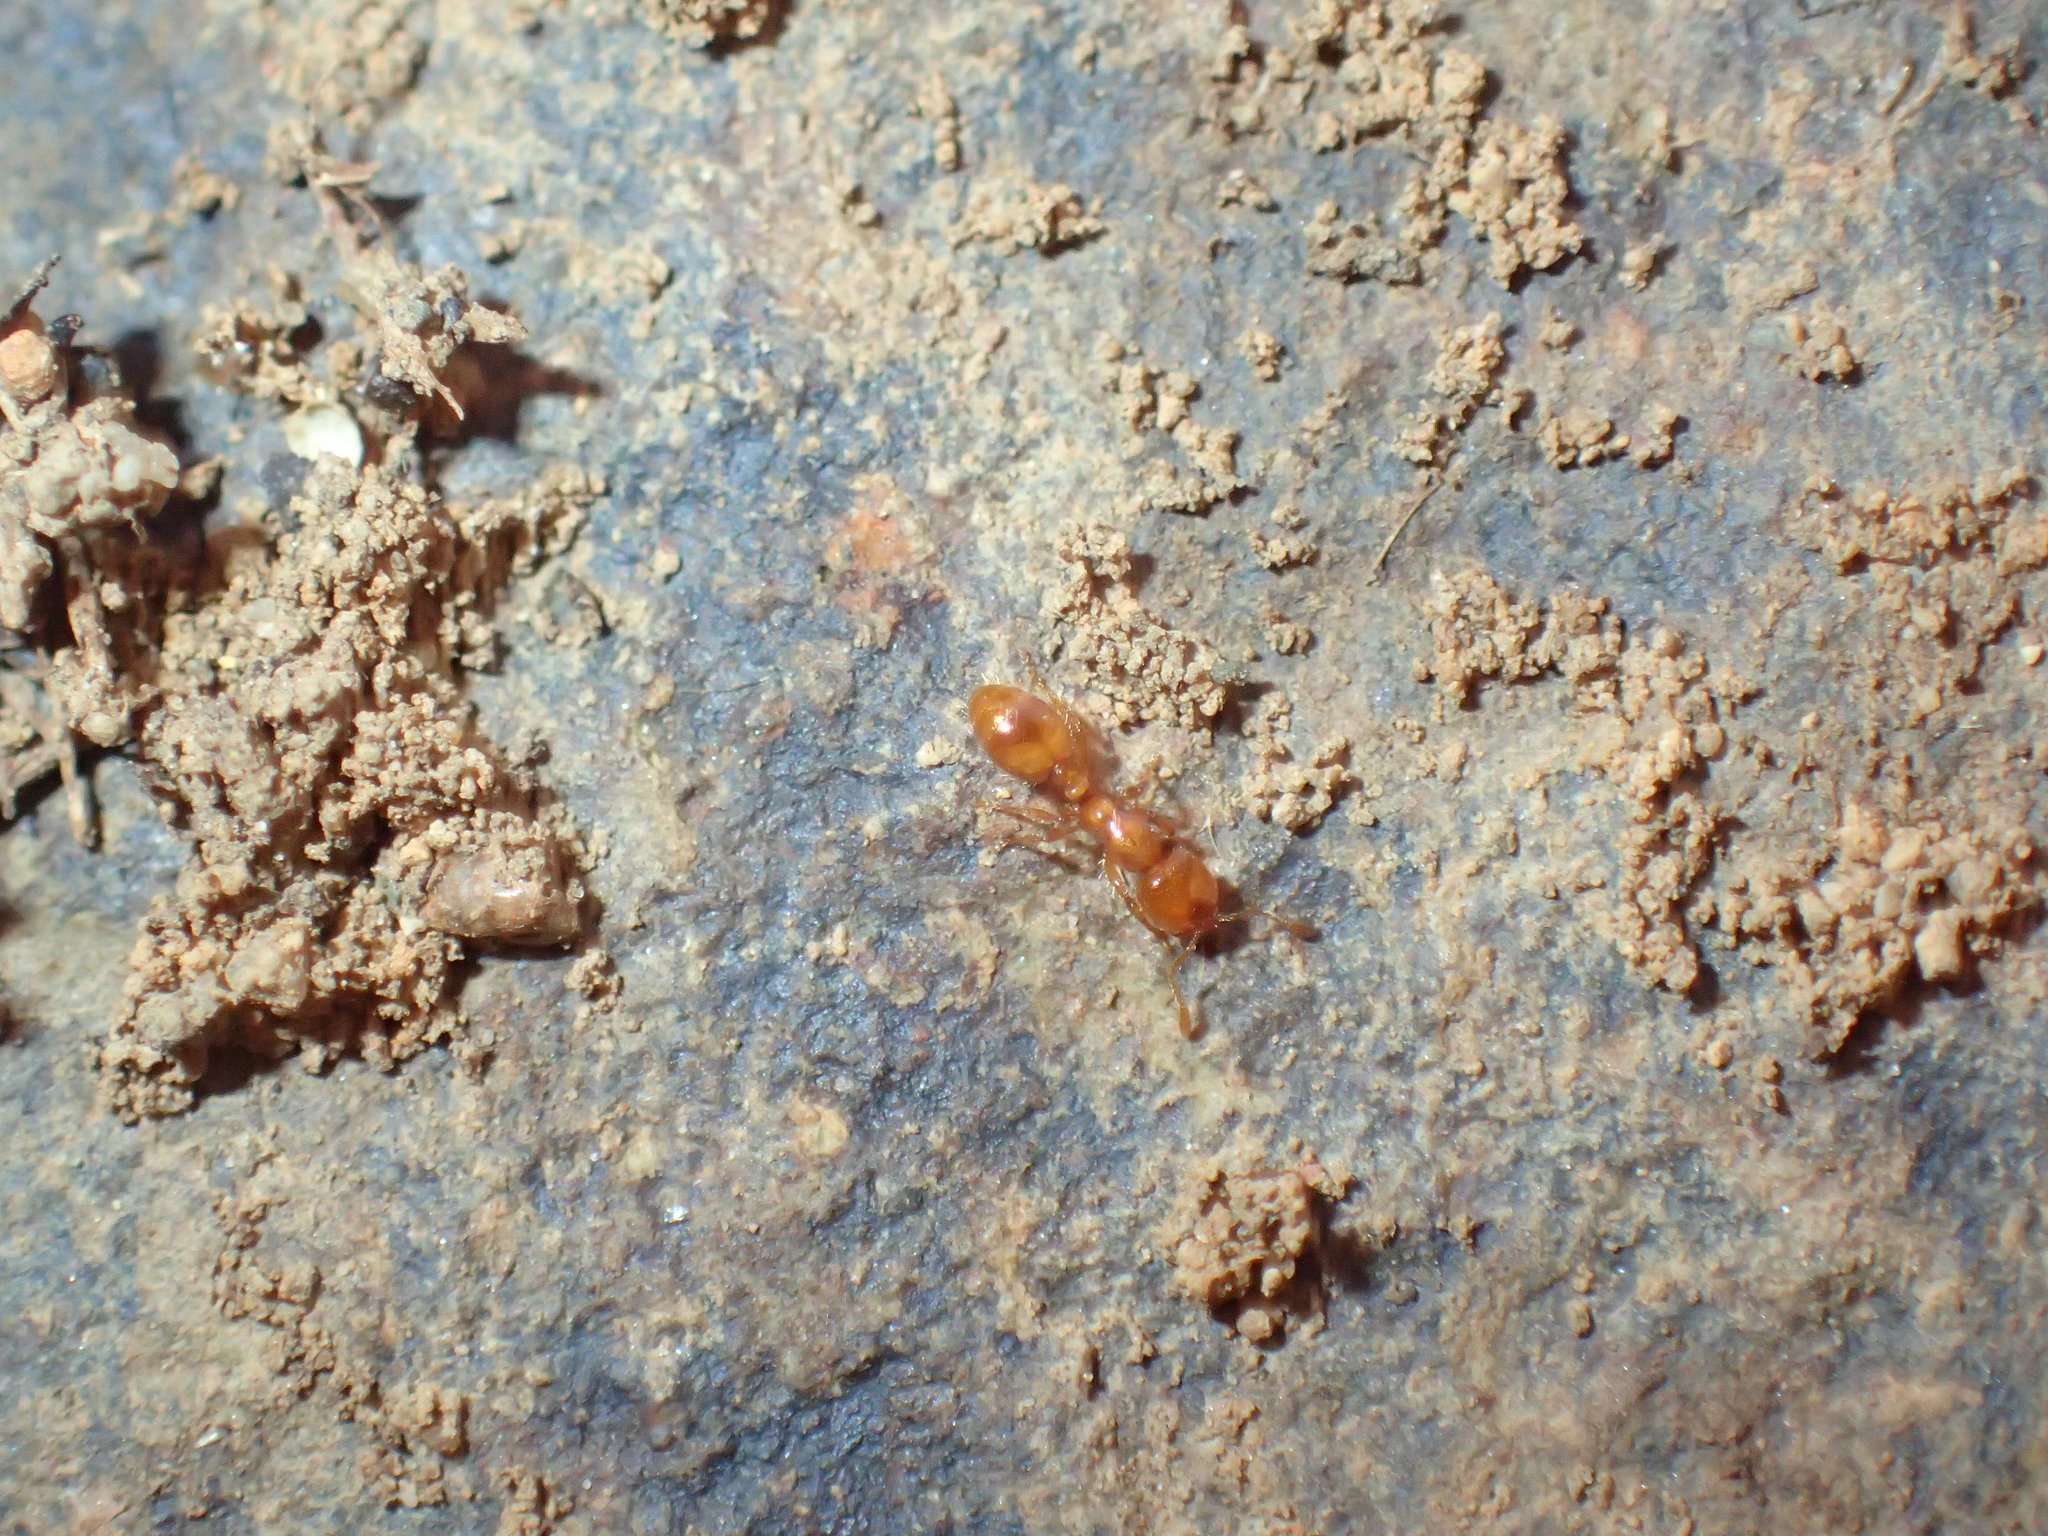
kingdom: Animalia
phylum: Arthropoda
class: Insecta
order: Hymenoptera
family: Formicidae
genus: Solenopsis
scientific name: Solenopsis punctaticeps
